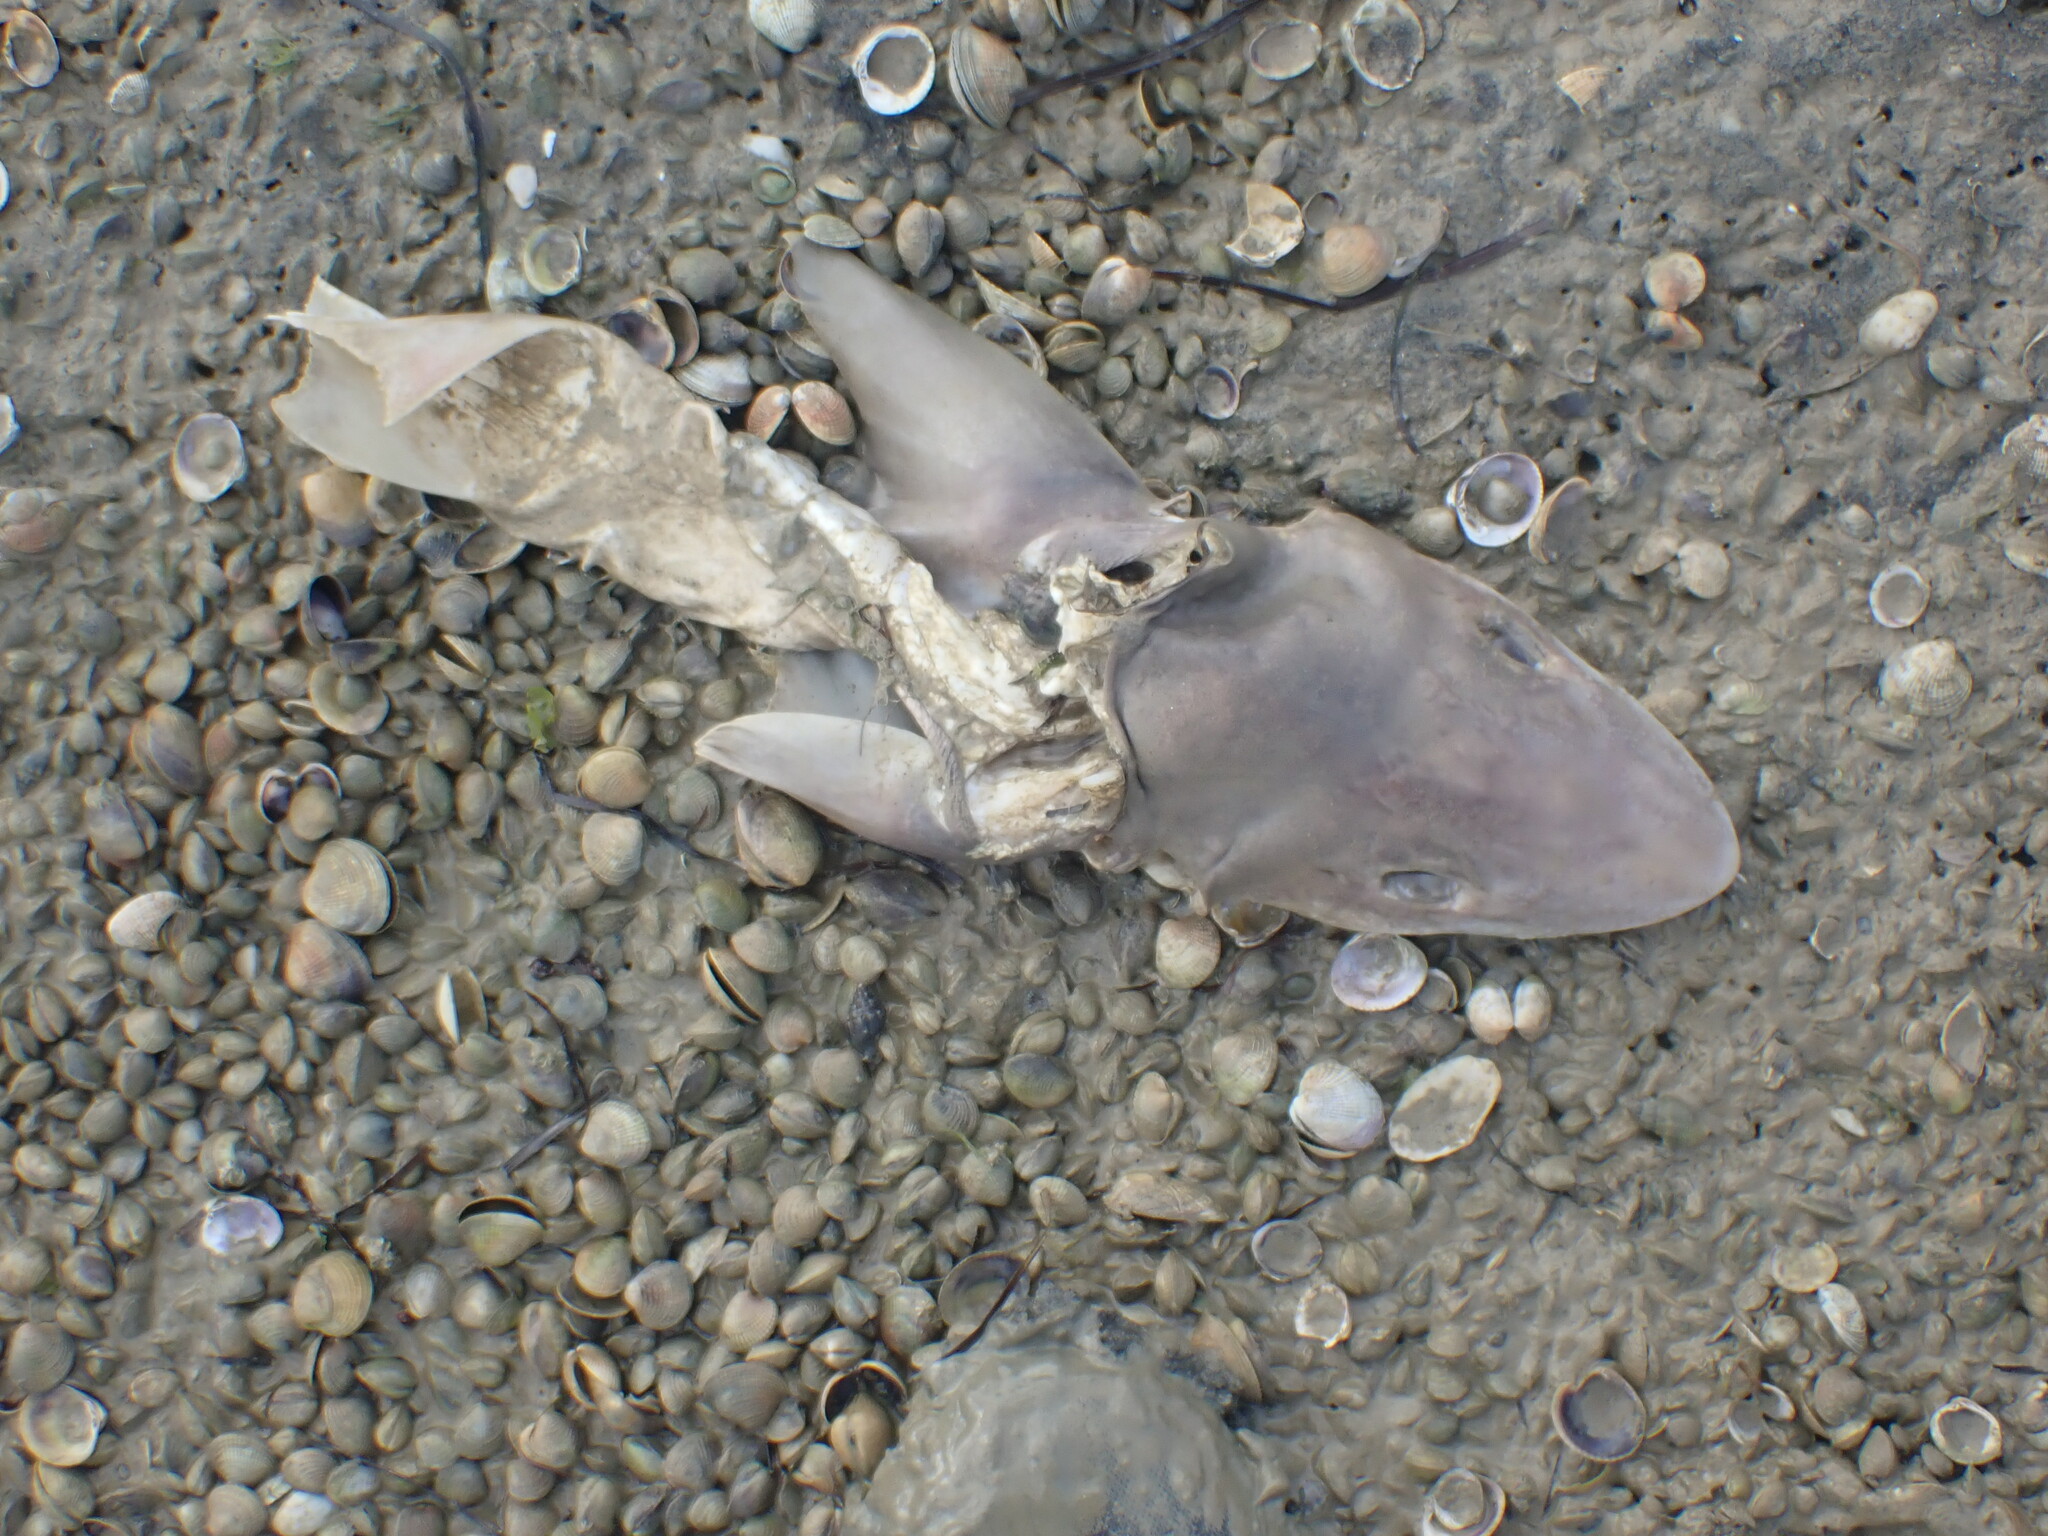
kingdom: Animalia
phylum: Chordata
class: Elasmobranchii
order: Carcharhiniformes
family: Triakidae
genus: Mustelus
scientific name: Mustelus lenticulatus
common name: Gummy shark
